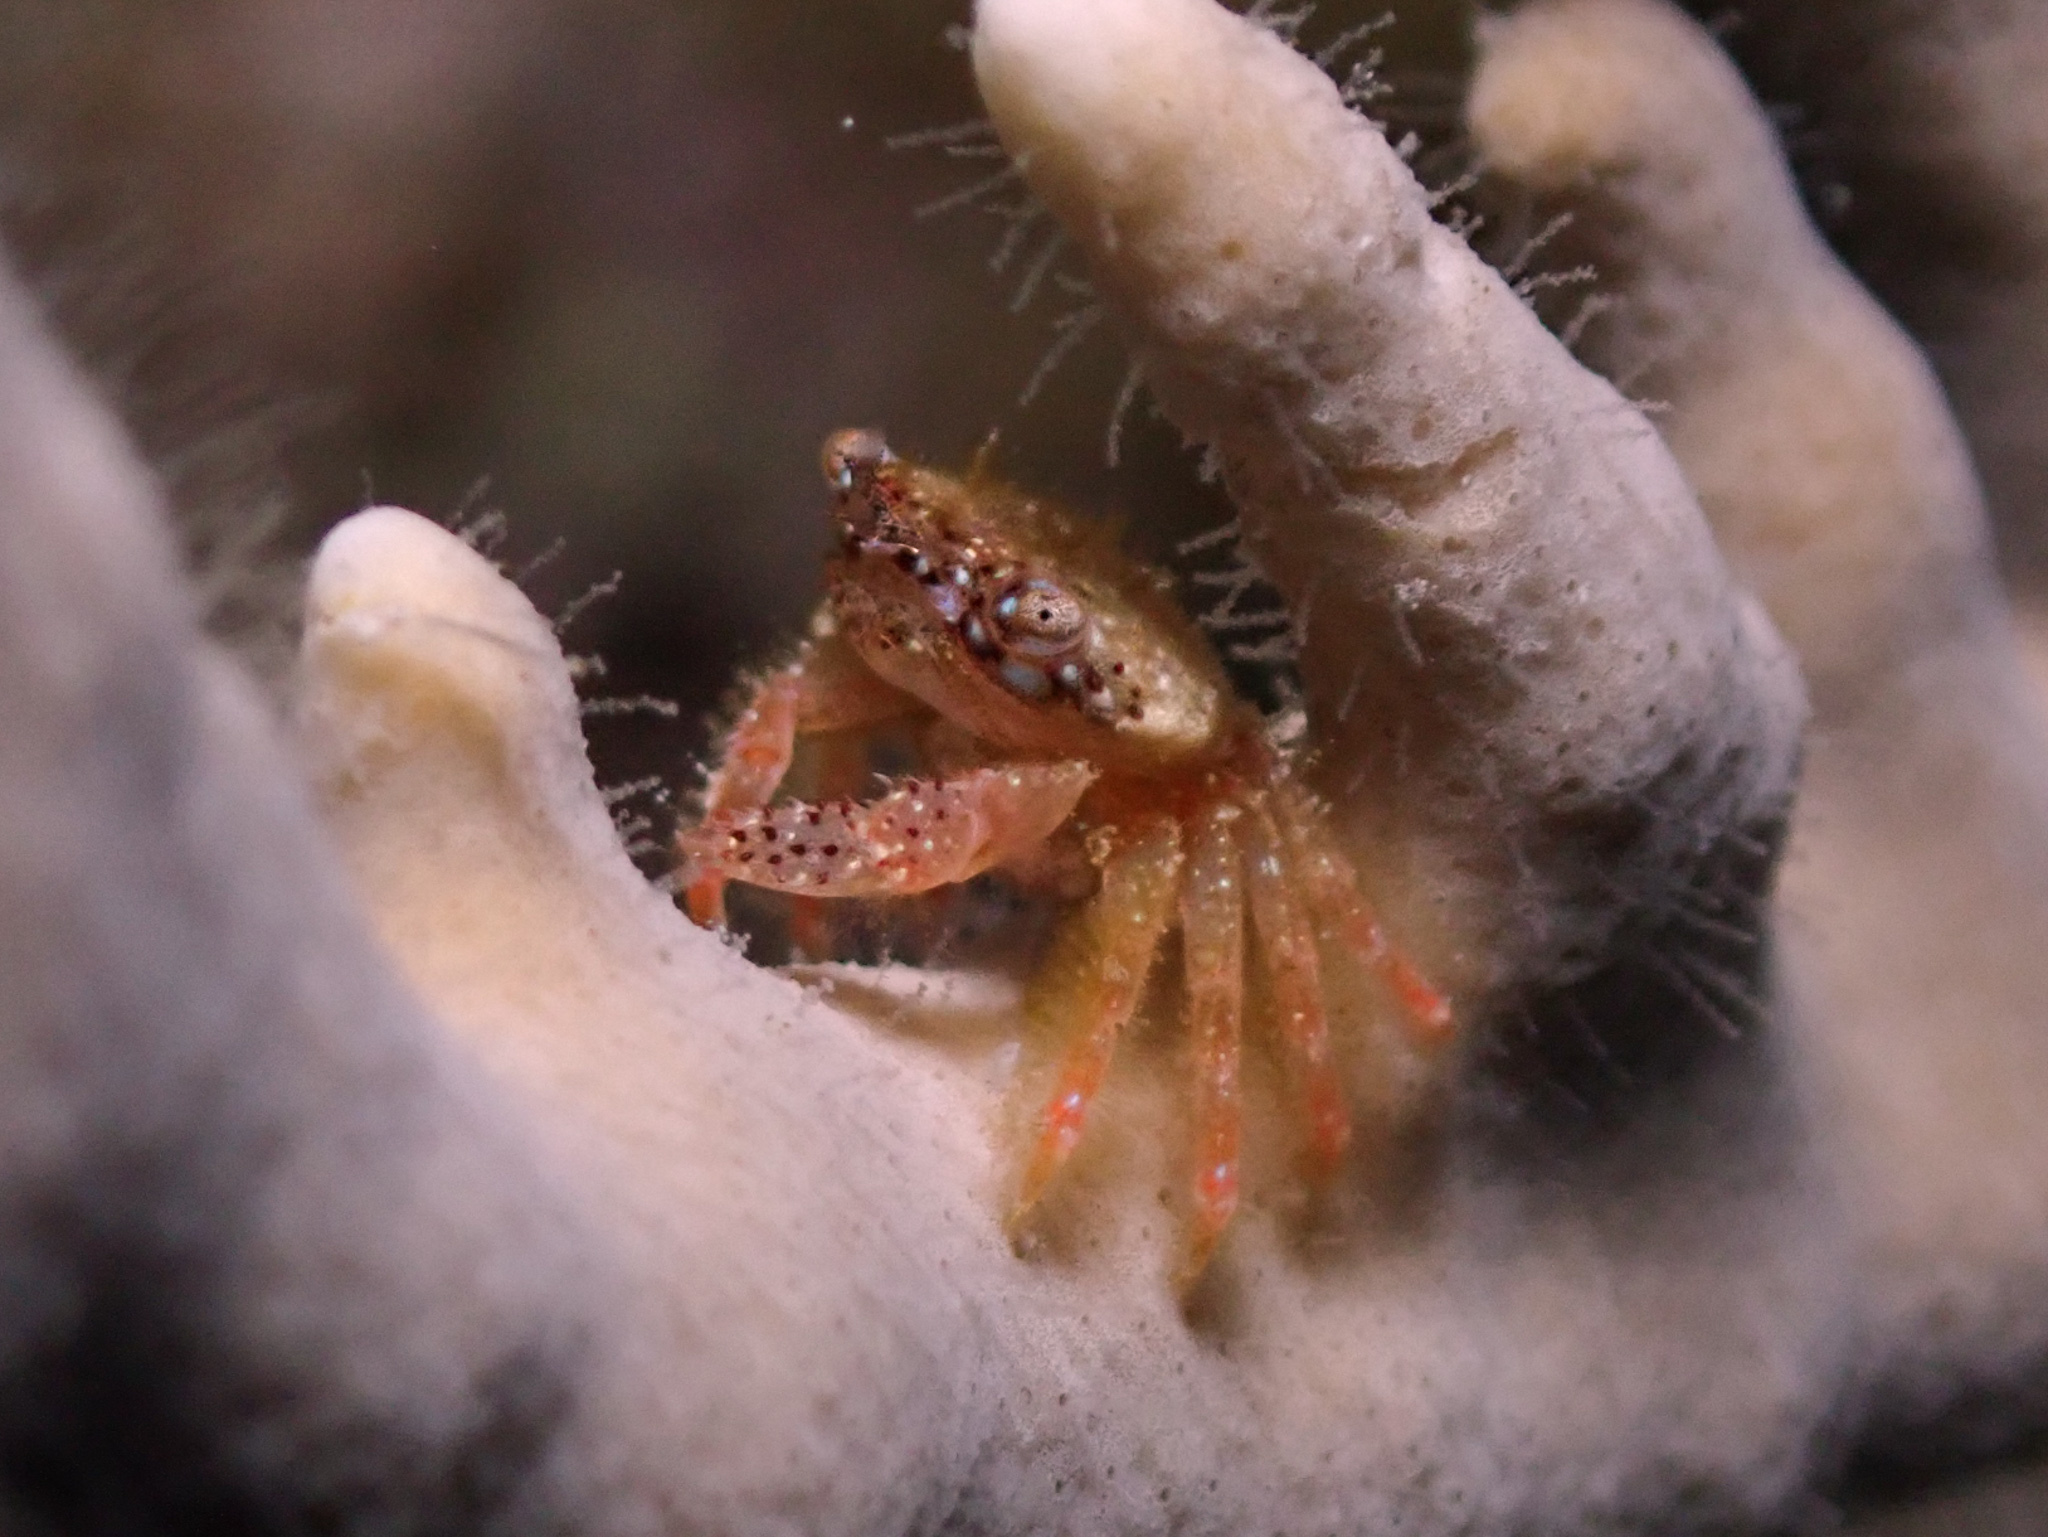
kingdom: Animalia
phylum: Arthropoda
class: Malacostraca
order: Decapoda
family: Domeciidae
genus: Domecia
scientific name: Domecia acanthophora
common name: Elkhorn coral crab
